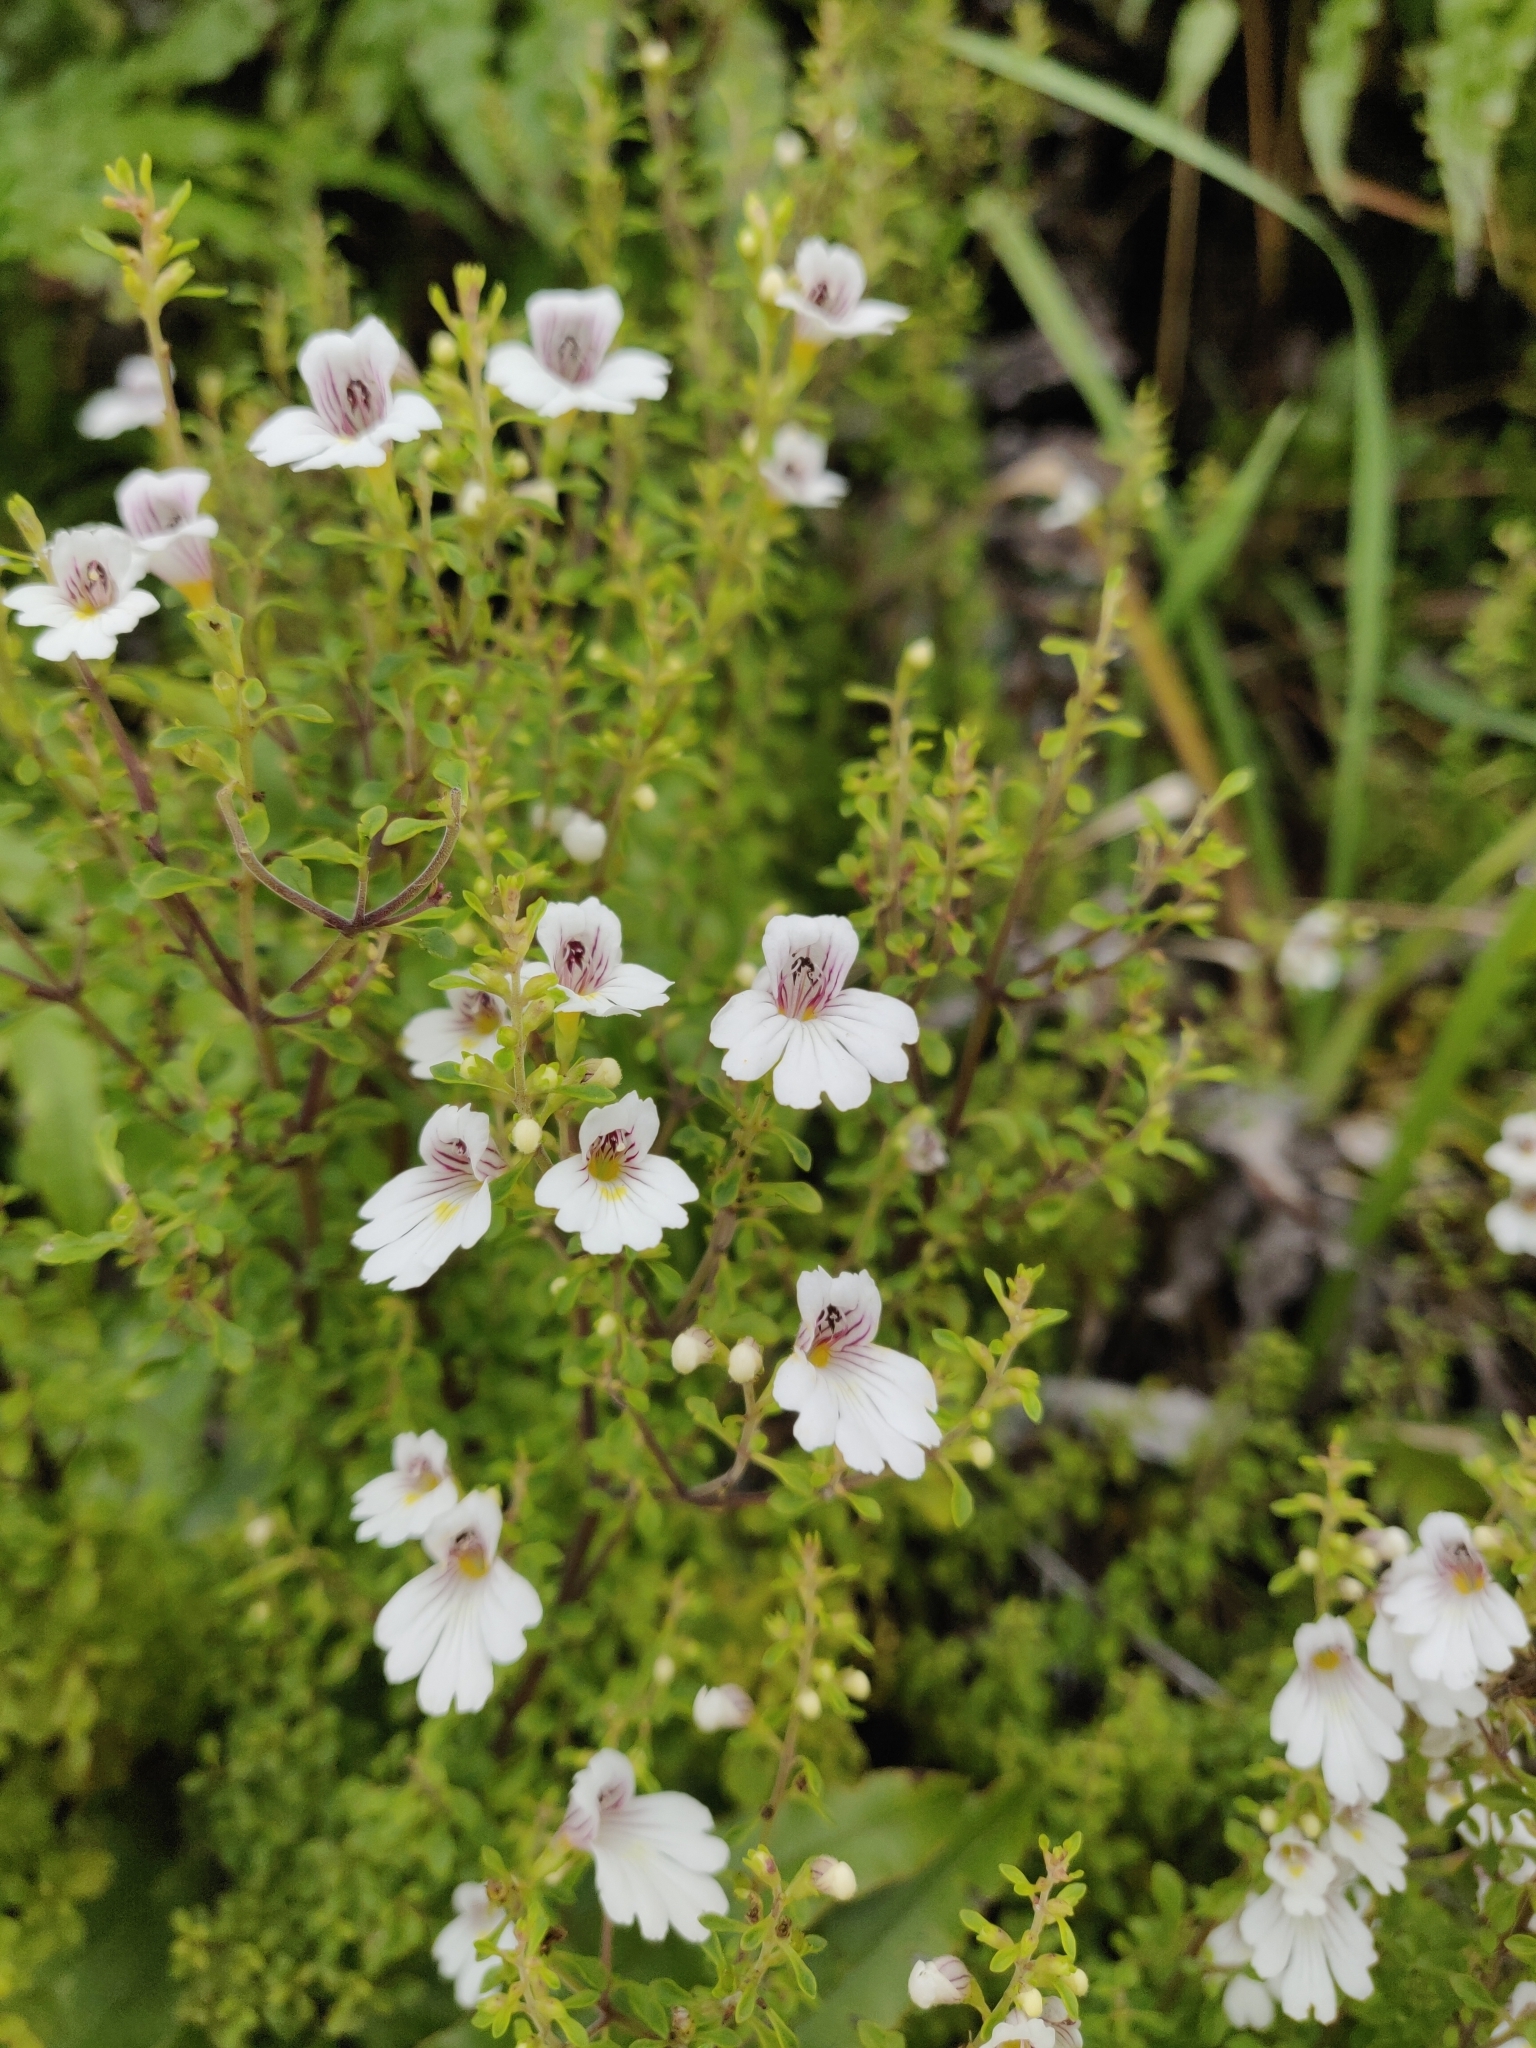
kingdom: Plantae
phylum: Tracheophyta
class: Magnoliopsida
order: Lamiales
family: Orobanchaceae
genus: Euphrasia
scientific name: Euphrasia cuneata
